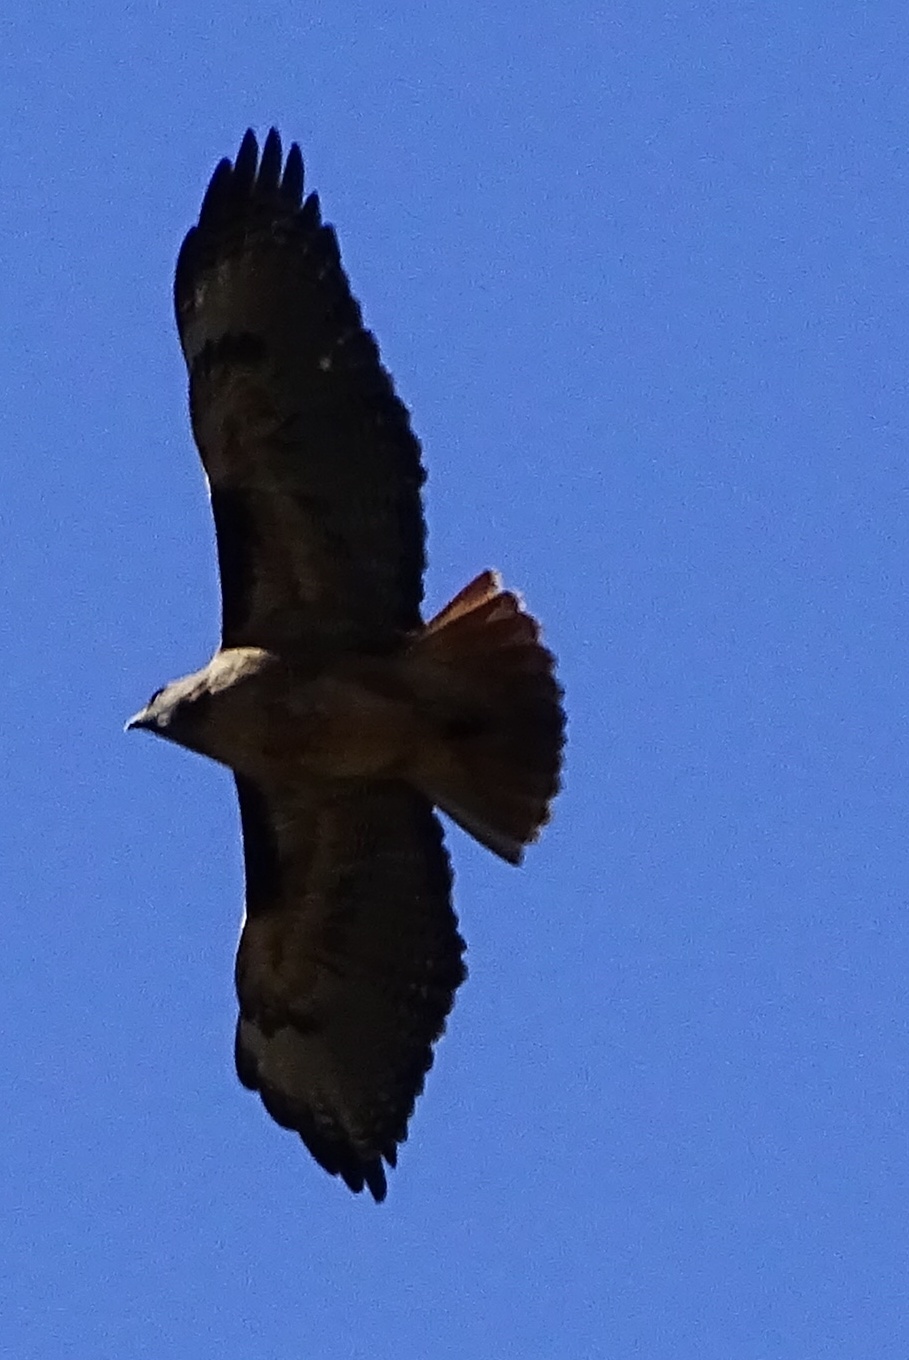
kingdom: Animalia
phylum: Chordata
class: Aves
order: Accipitriformes
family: Accipitridae
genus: Buteo
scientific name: Buteo jamaicensis
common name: Red-tailed hawk
